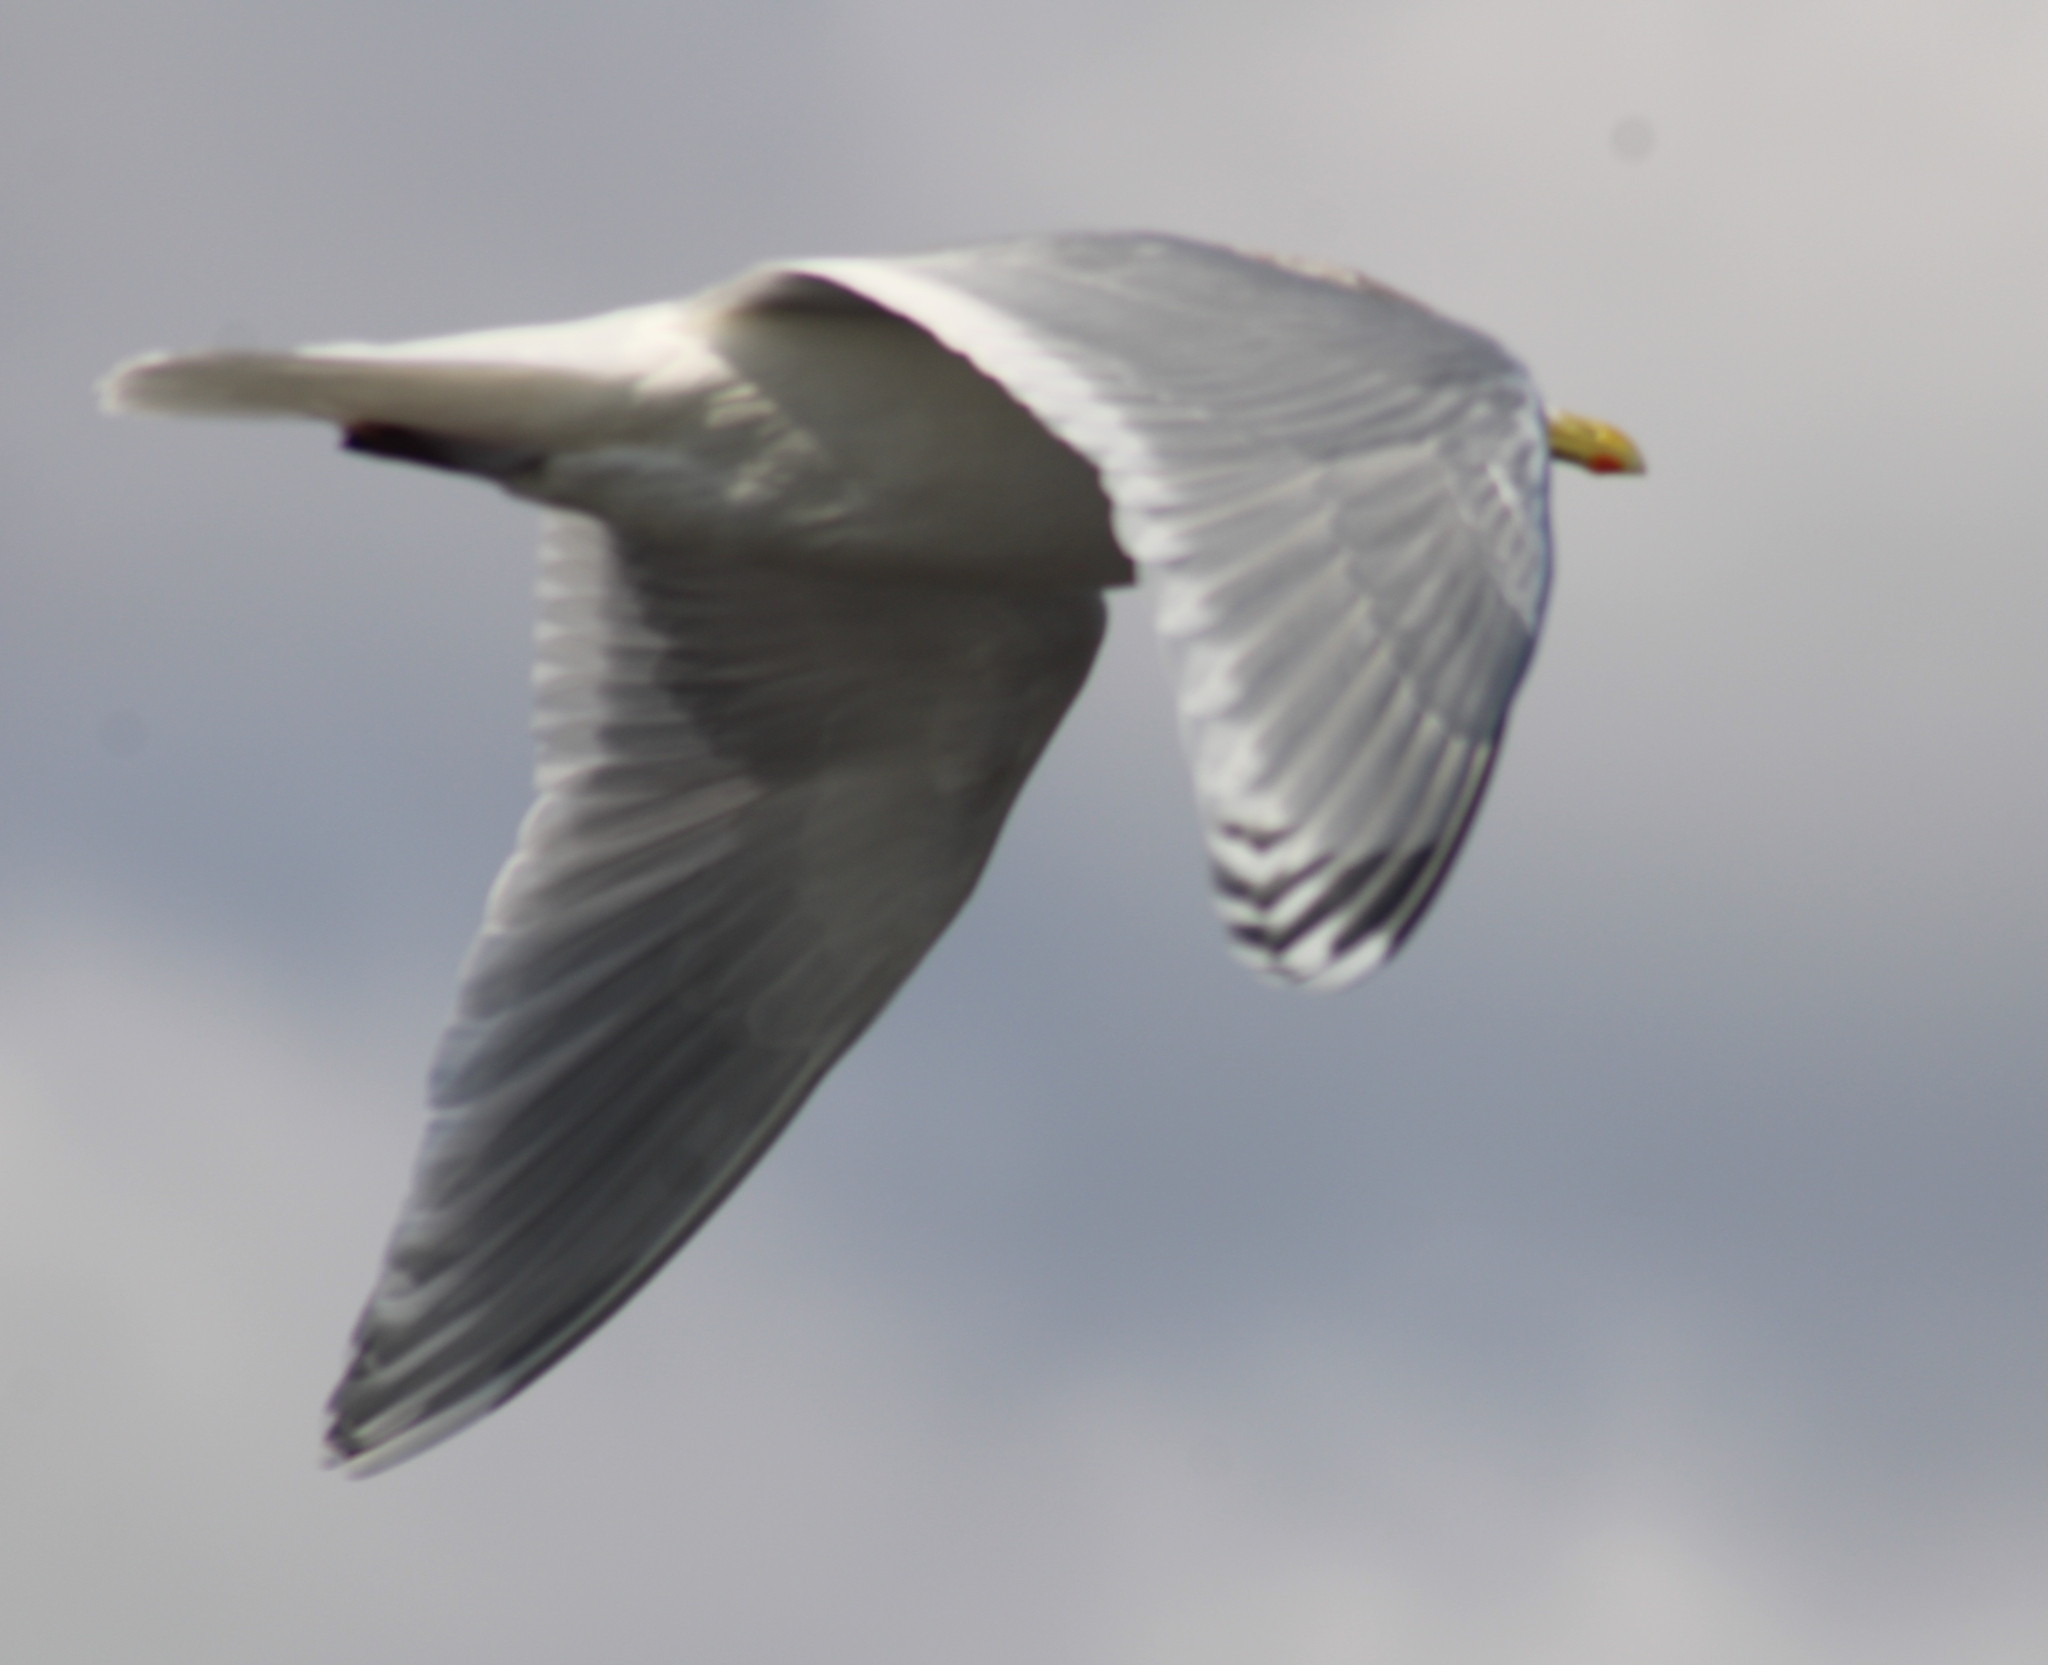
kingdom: Animalia
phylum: Chordata
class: Aves
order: Charadriiformes
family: Laridae
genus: Larus
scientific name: Larus glaucoides
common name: Iceland gull
